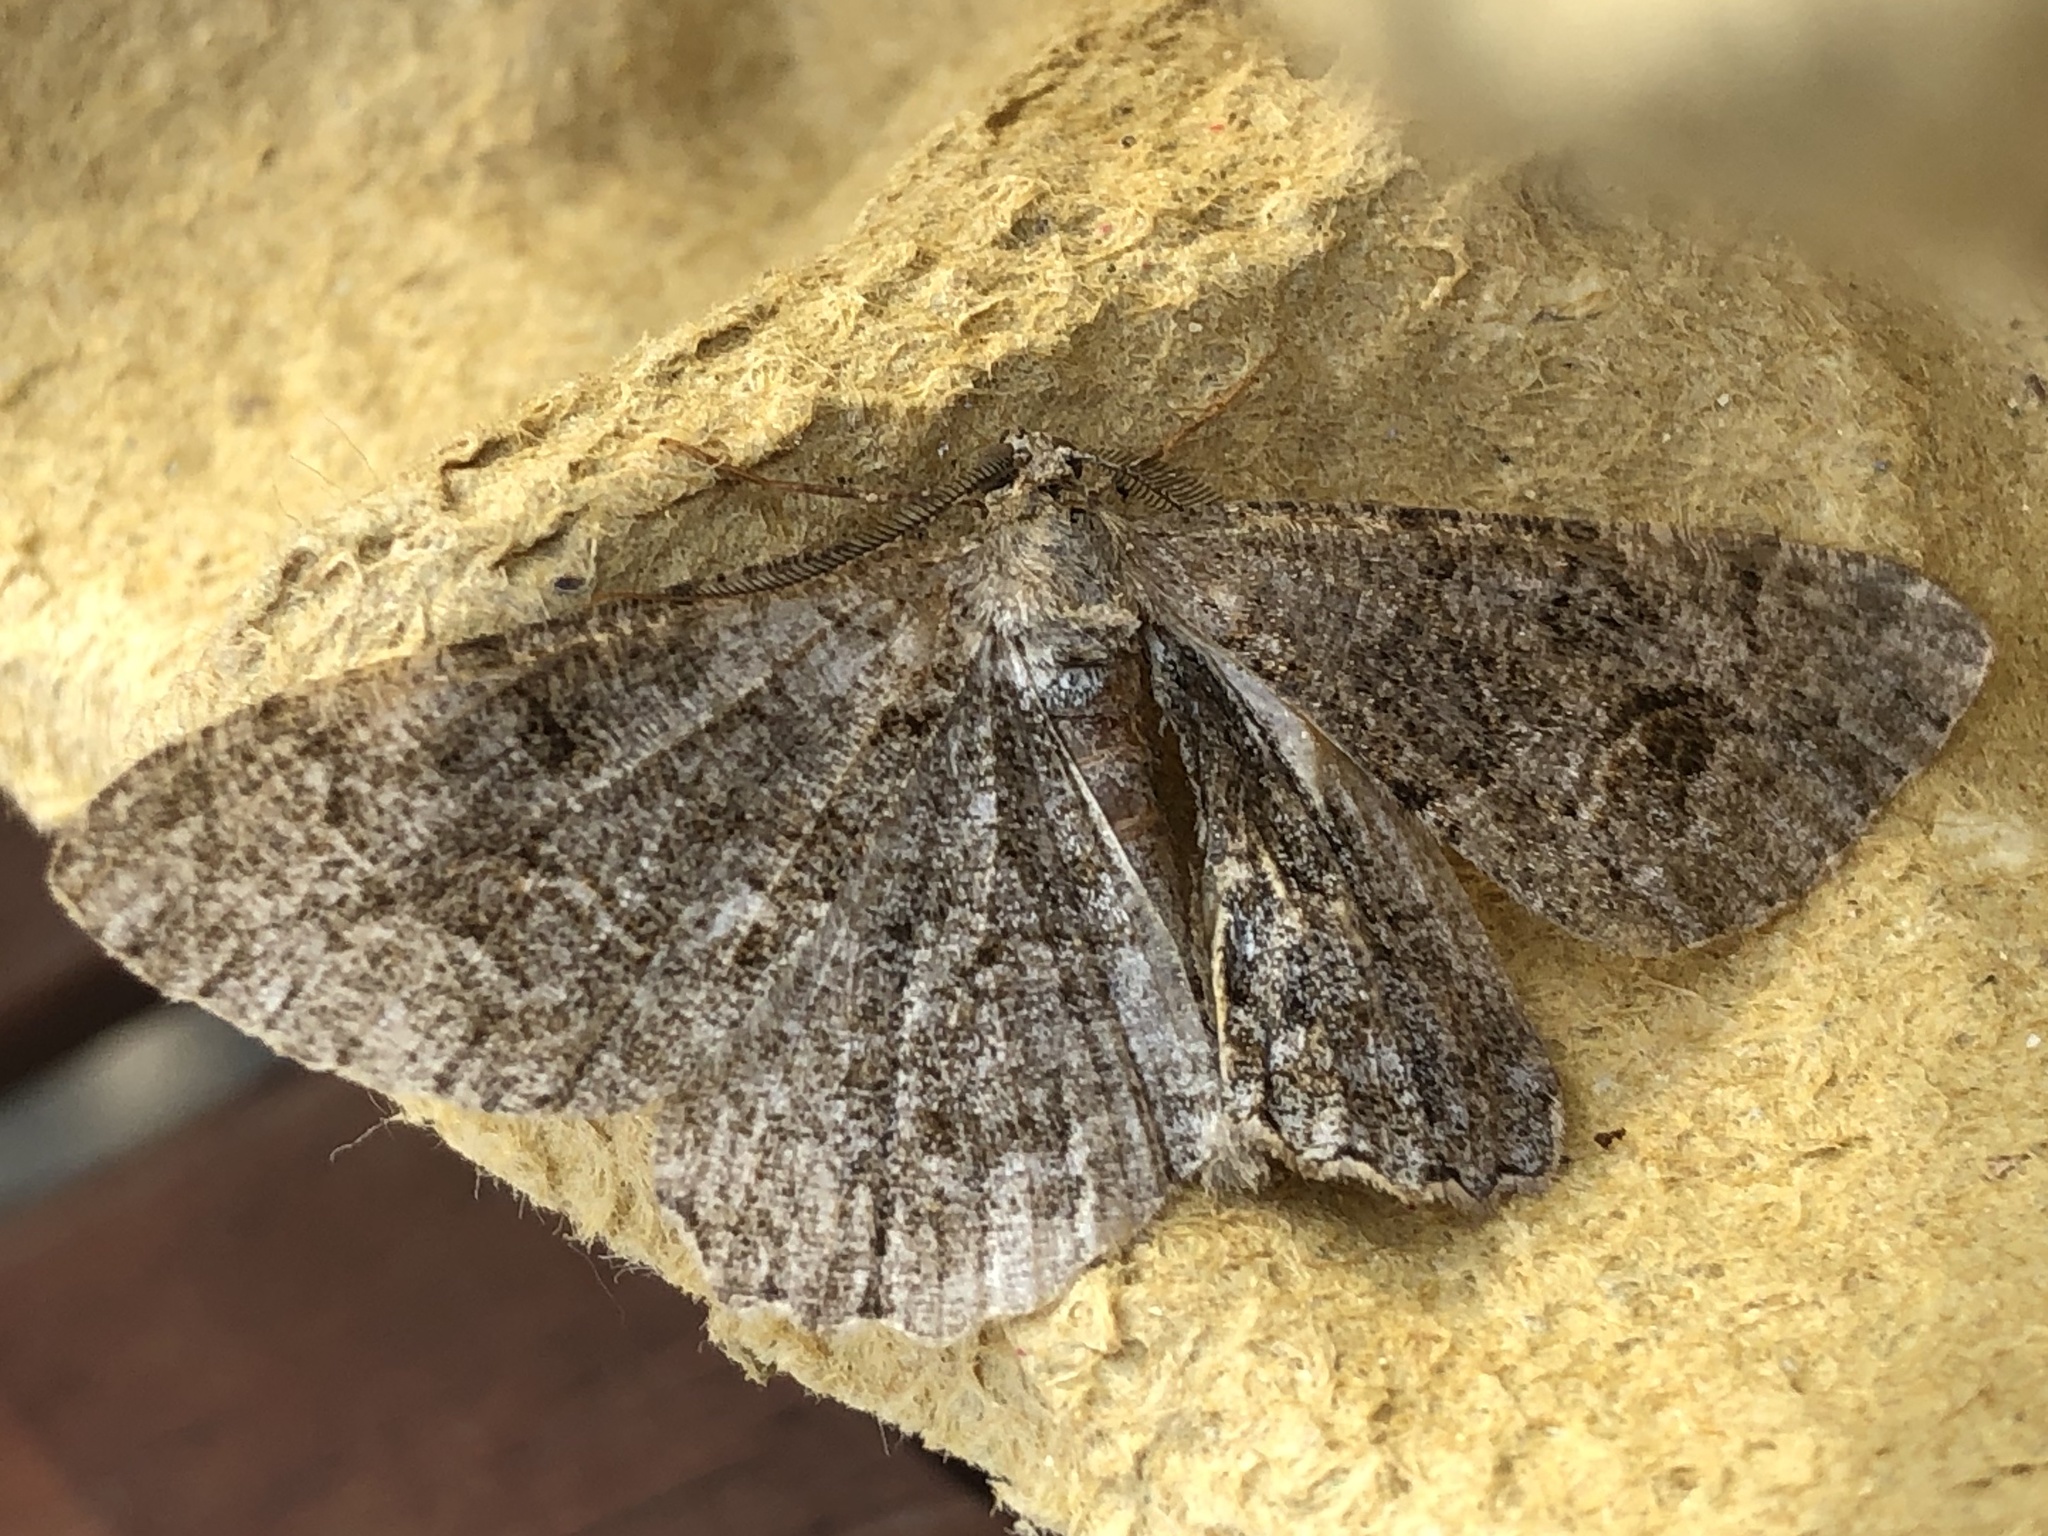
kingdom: Animalia
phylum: Arthropoda
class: Insecta
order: Lepidoptera
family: Geometridae
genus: Alcis
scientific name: Alcis repandata
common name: Mottled beauty
